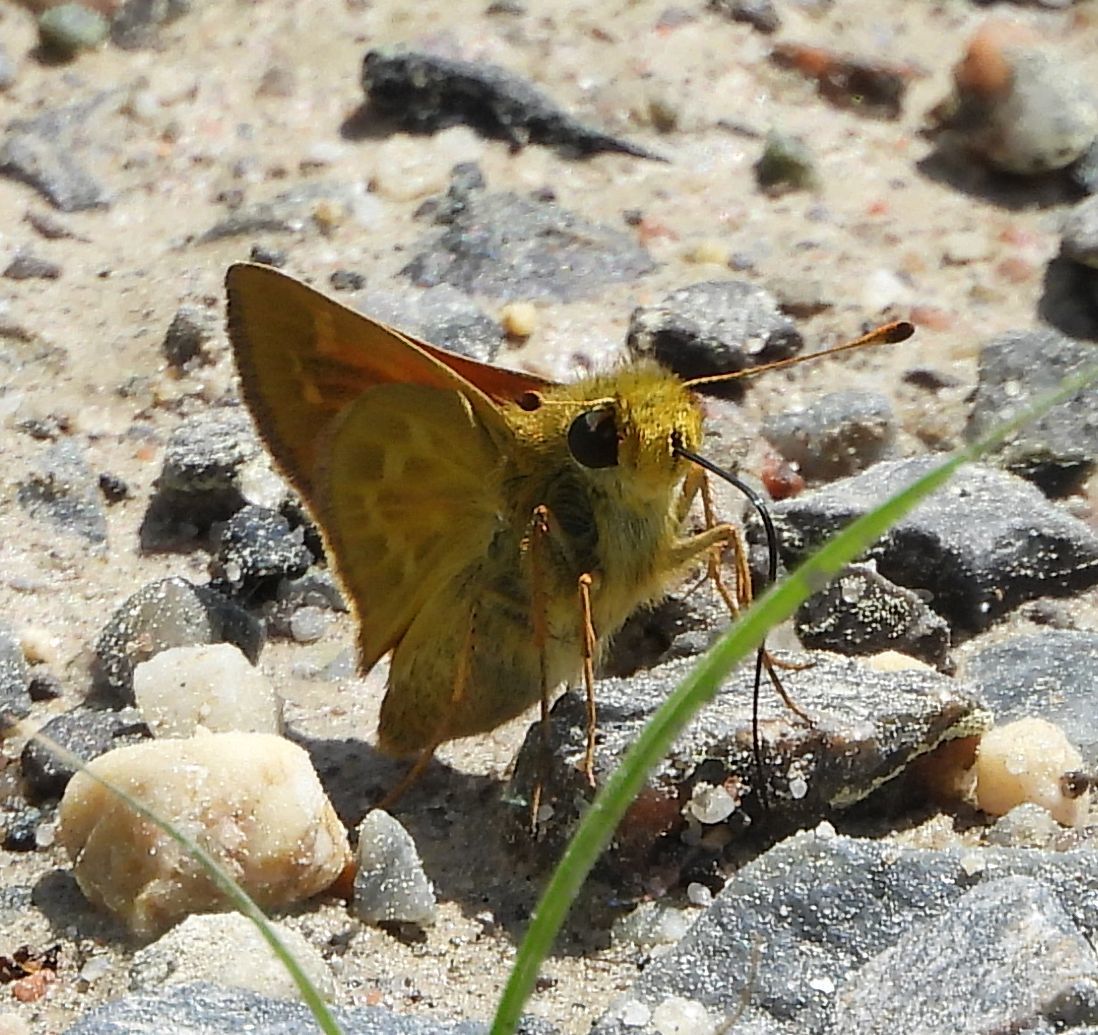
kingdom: Animalia
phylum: Arthropoda
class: Insecta
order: Lepidoptera
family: Hesperiidae
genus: Hesperia
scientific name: Hesperia sassacus
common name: Indian skipper
